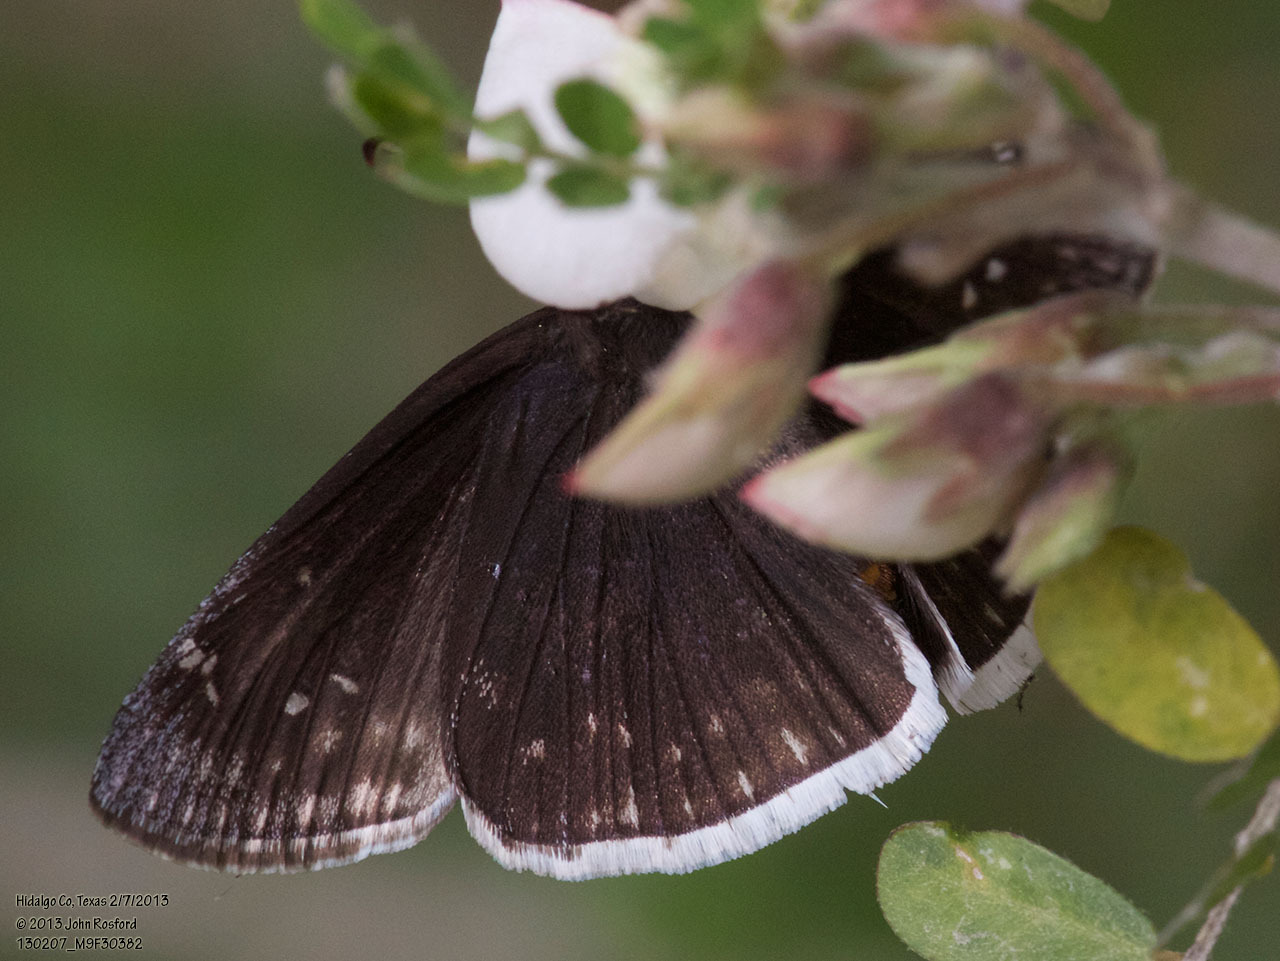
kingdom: Animalia
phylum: Arthropoda
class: Insecta
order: Lepidoptera
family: Hesperiidae
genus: Erynnis
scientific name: Erynnis funeralis
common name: Funereal duskywing
